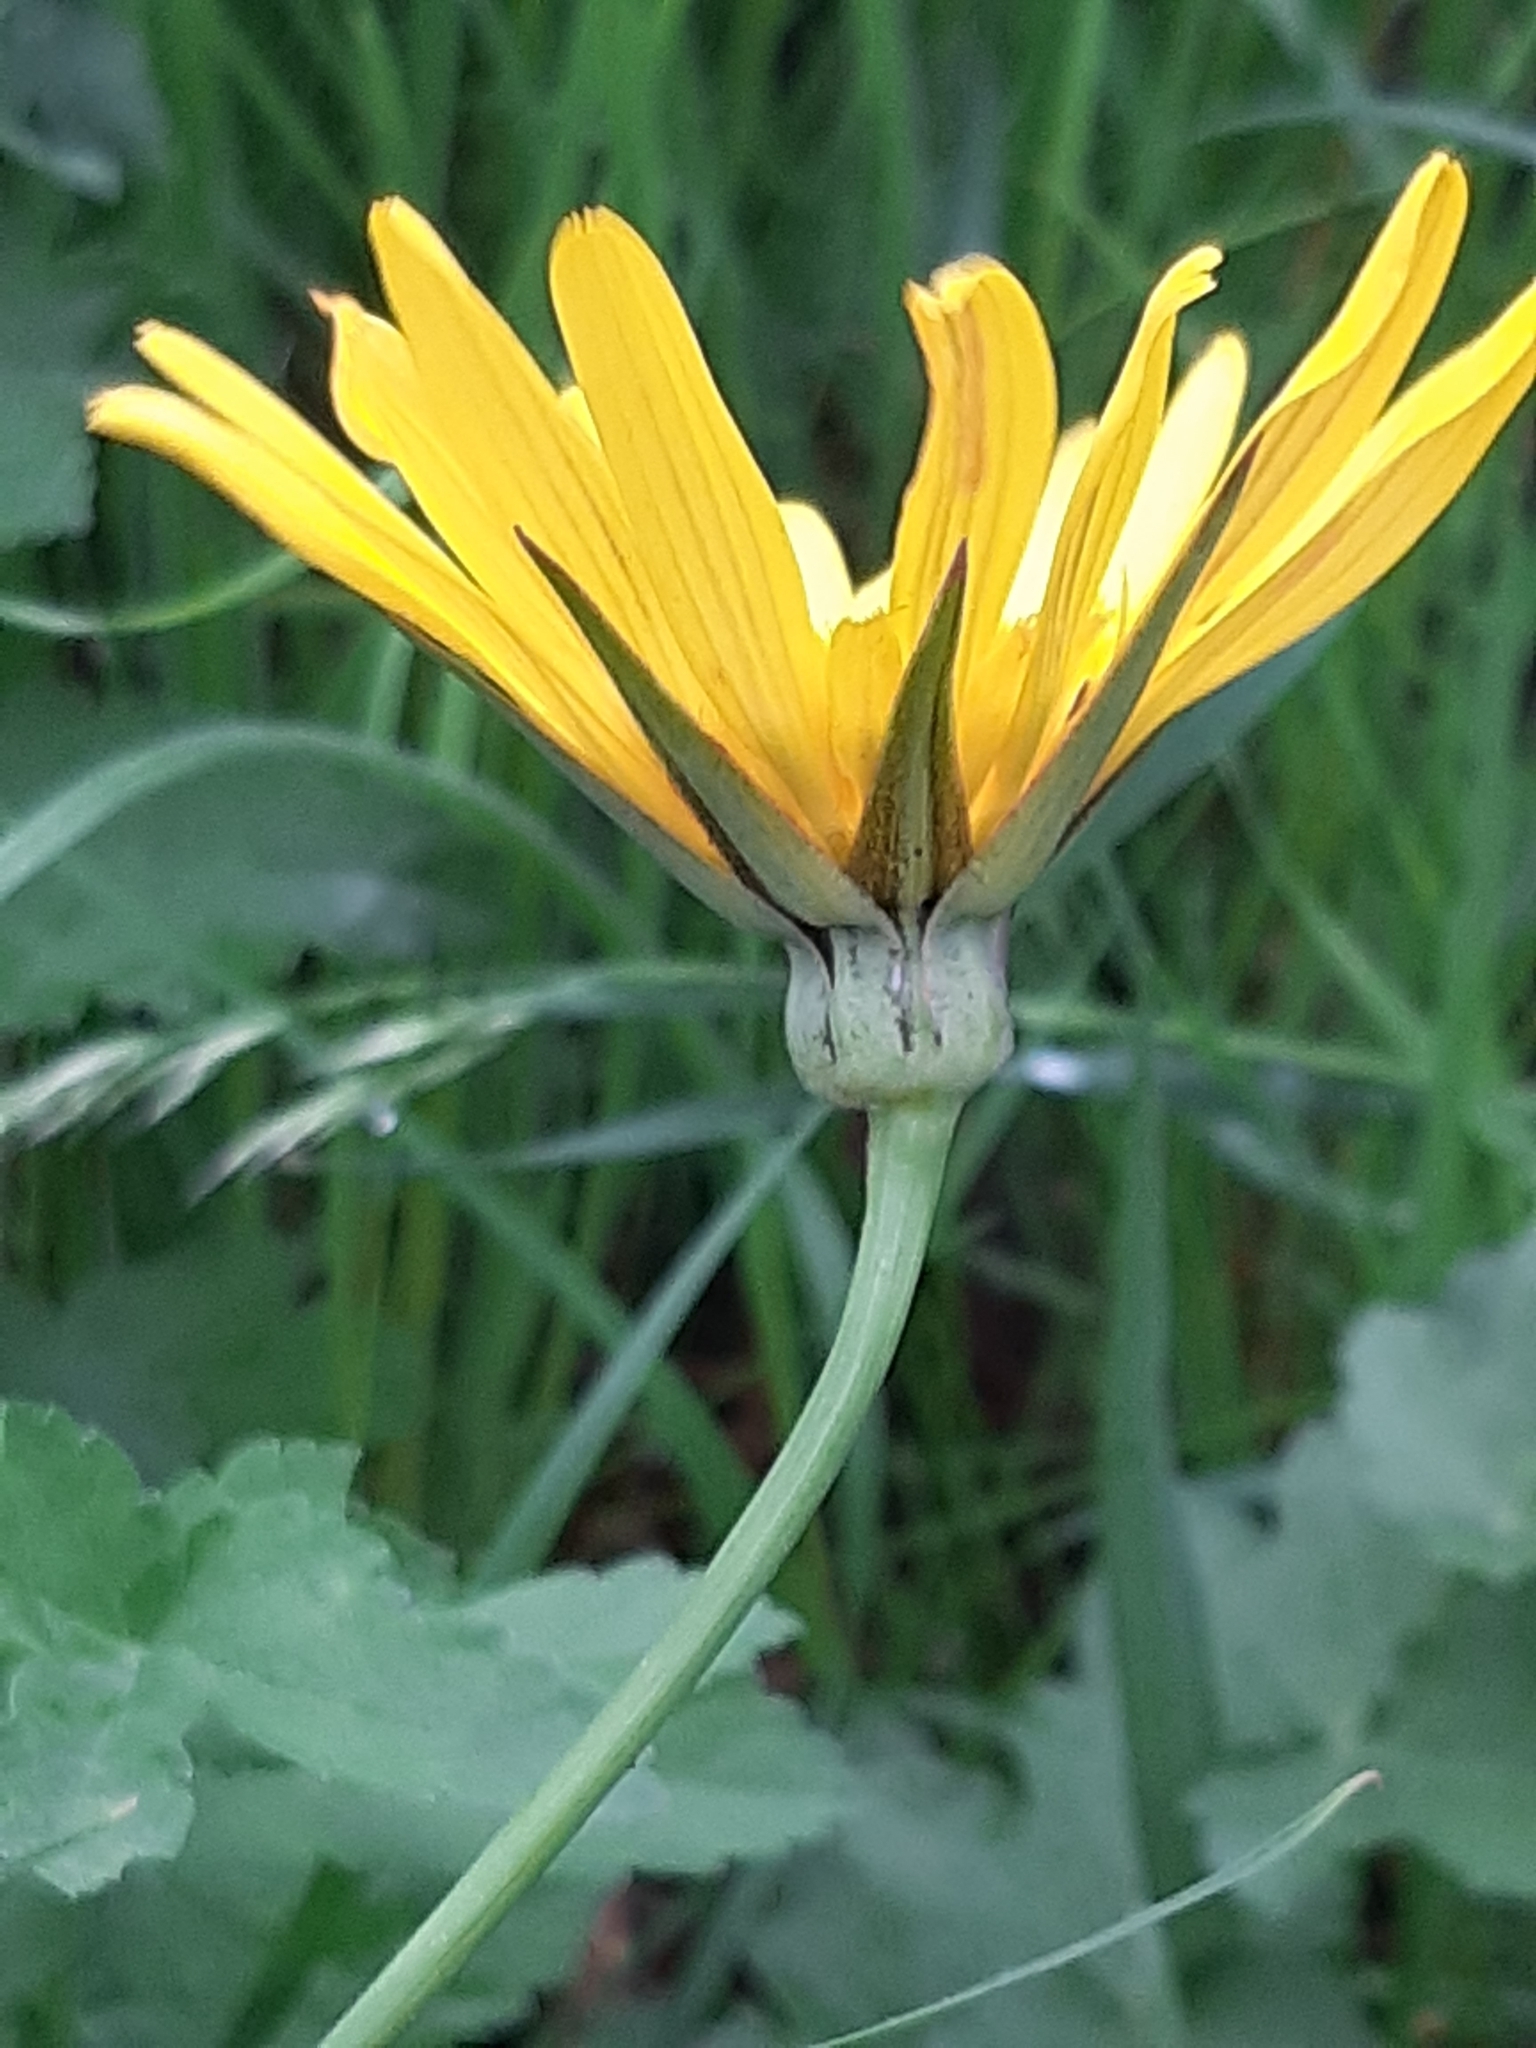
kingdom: Plantae
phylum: Tracheophyta
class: Magnoliopsida
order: Asterales
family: Asteraceae
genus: Tragopogon
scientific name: Tragopogon orientalis
